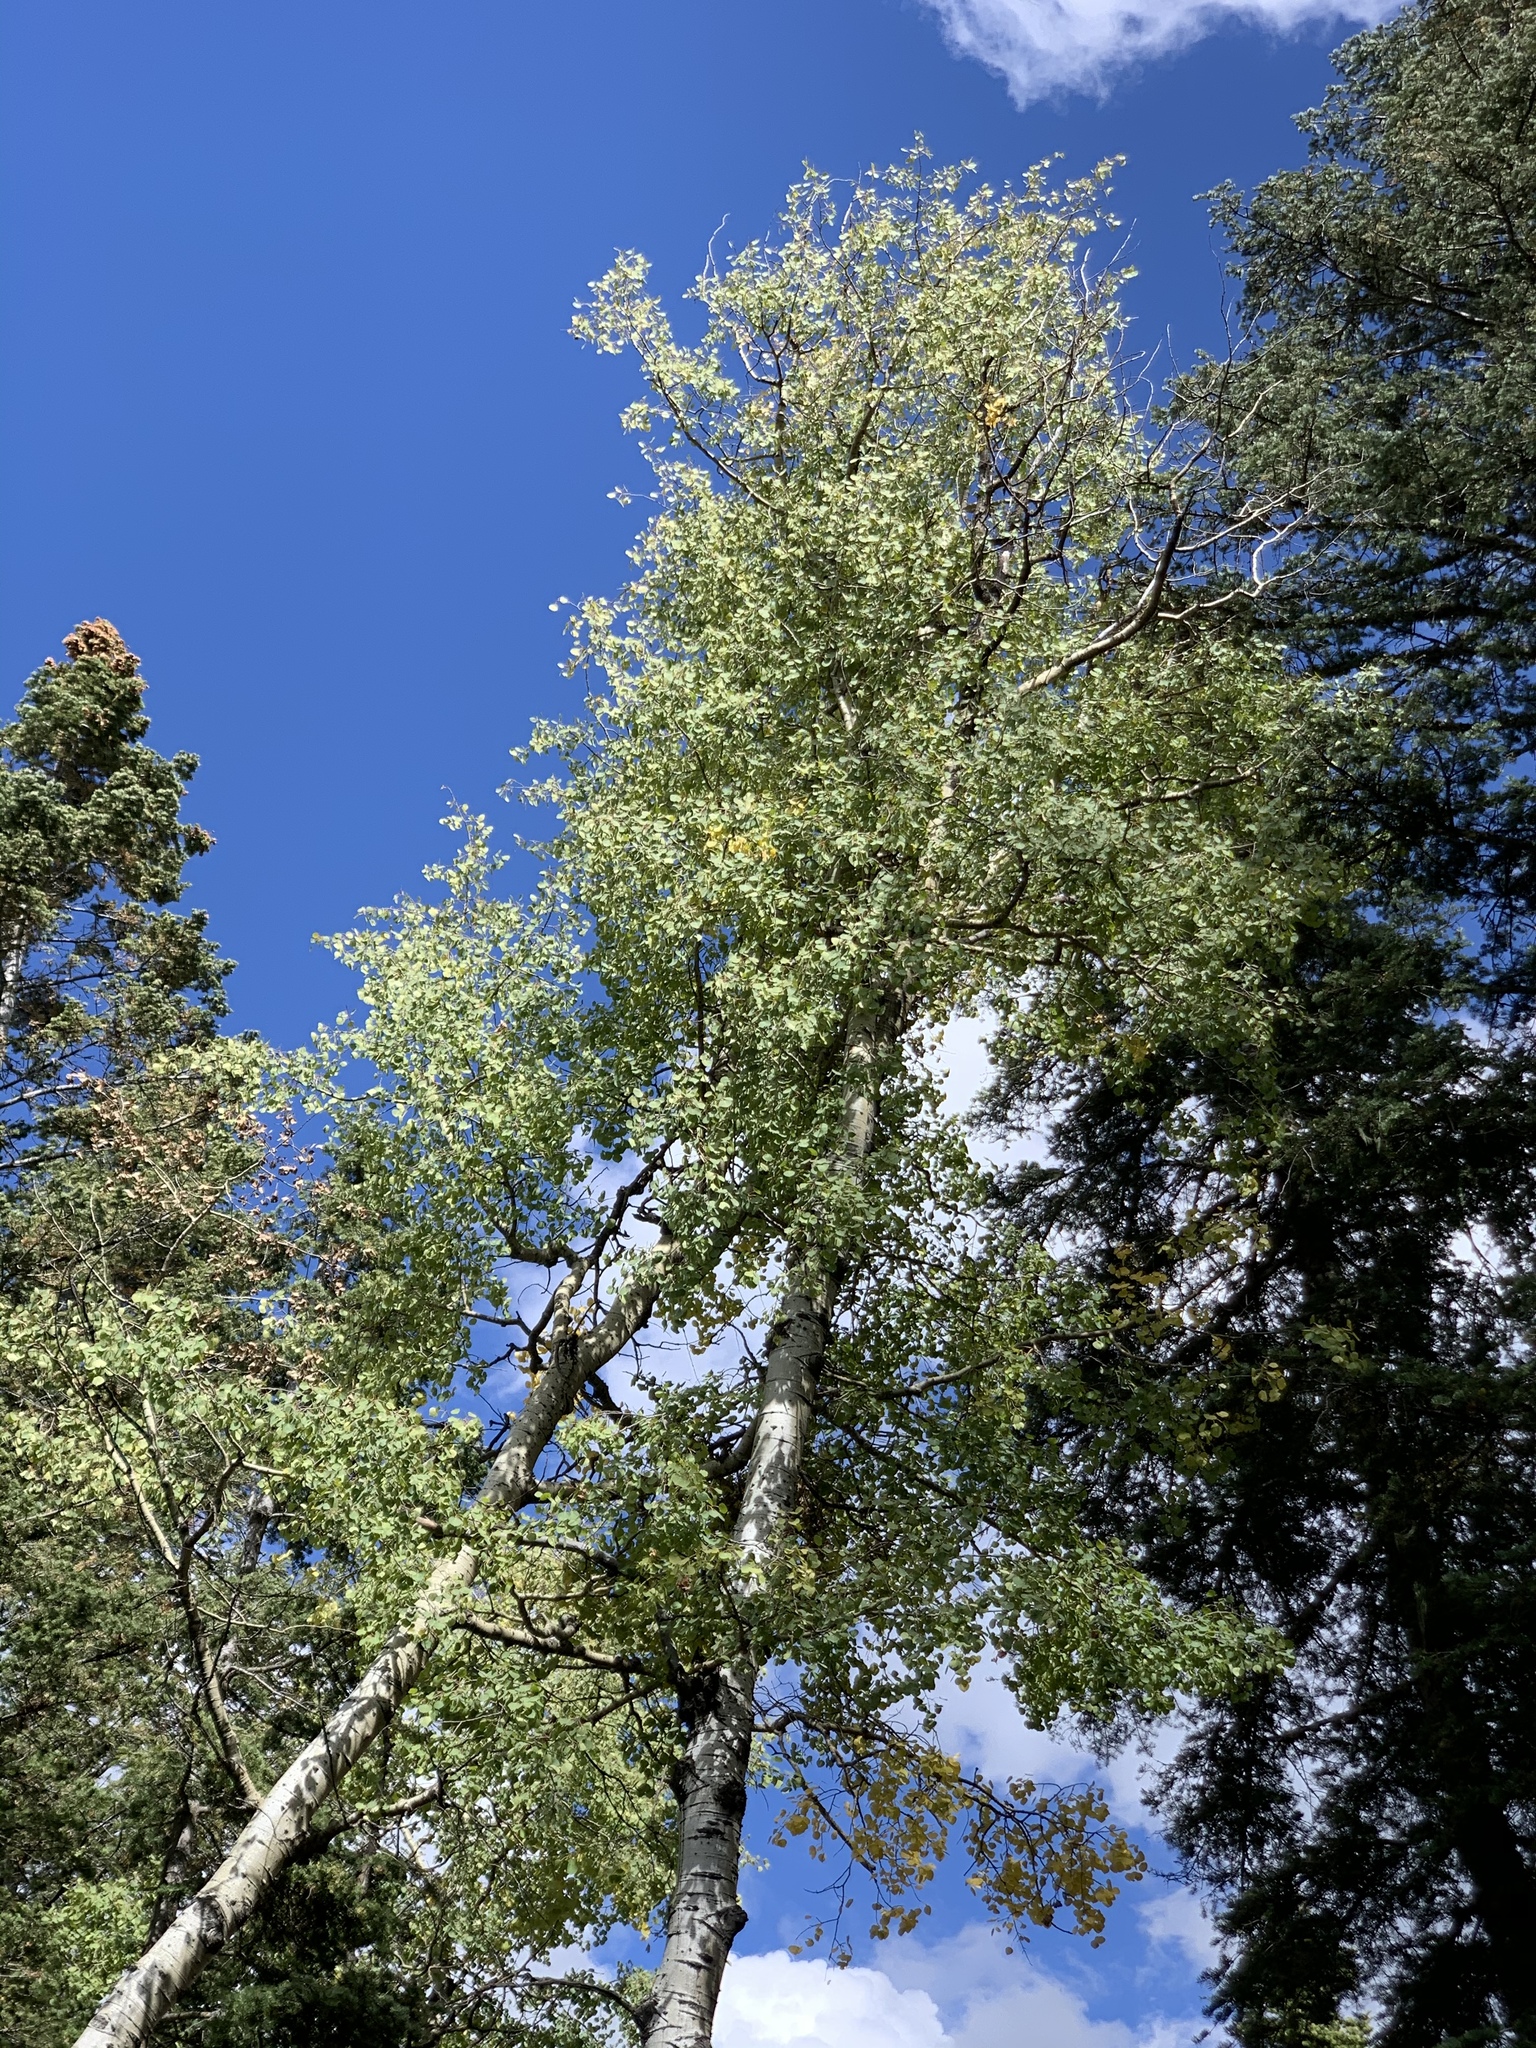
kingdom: Plantae
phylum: Tracheophyta
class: Magnoliopsida
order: Malpighiales
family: Salicaceae
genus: Populus
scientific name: Populus tremuloides
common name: Quaking aspen
